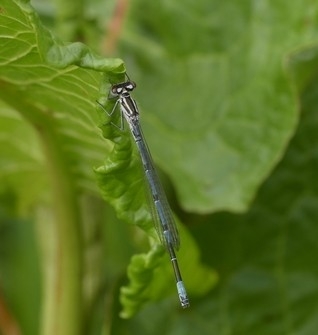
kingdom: Animalia
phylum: Arthropoda
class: Insecta
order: Odonata
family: Coenagrionidae
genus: Coenagrion
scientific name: Coenagrion puella
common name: Azure damselfly
